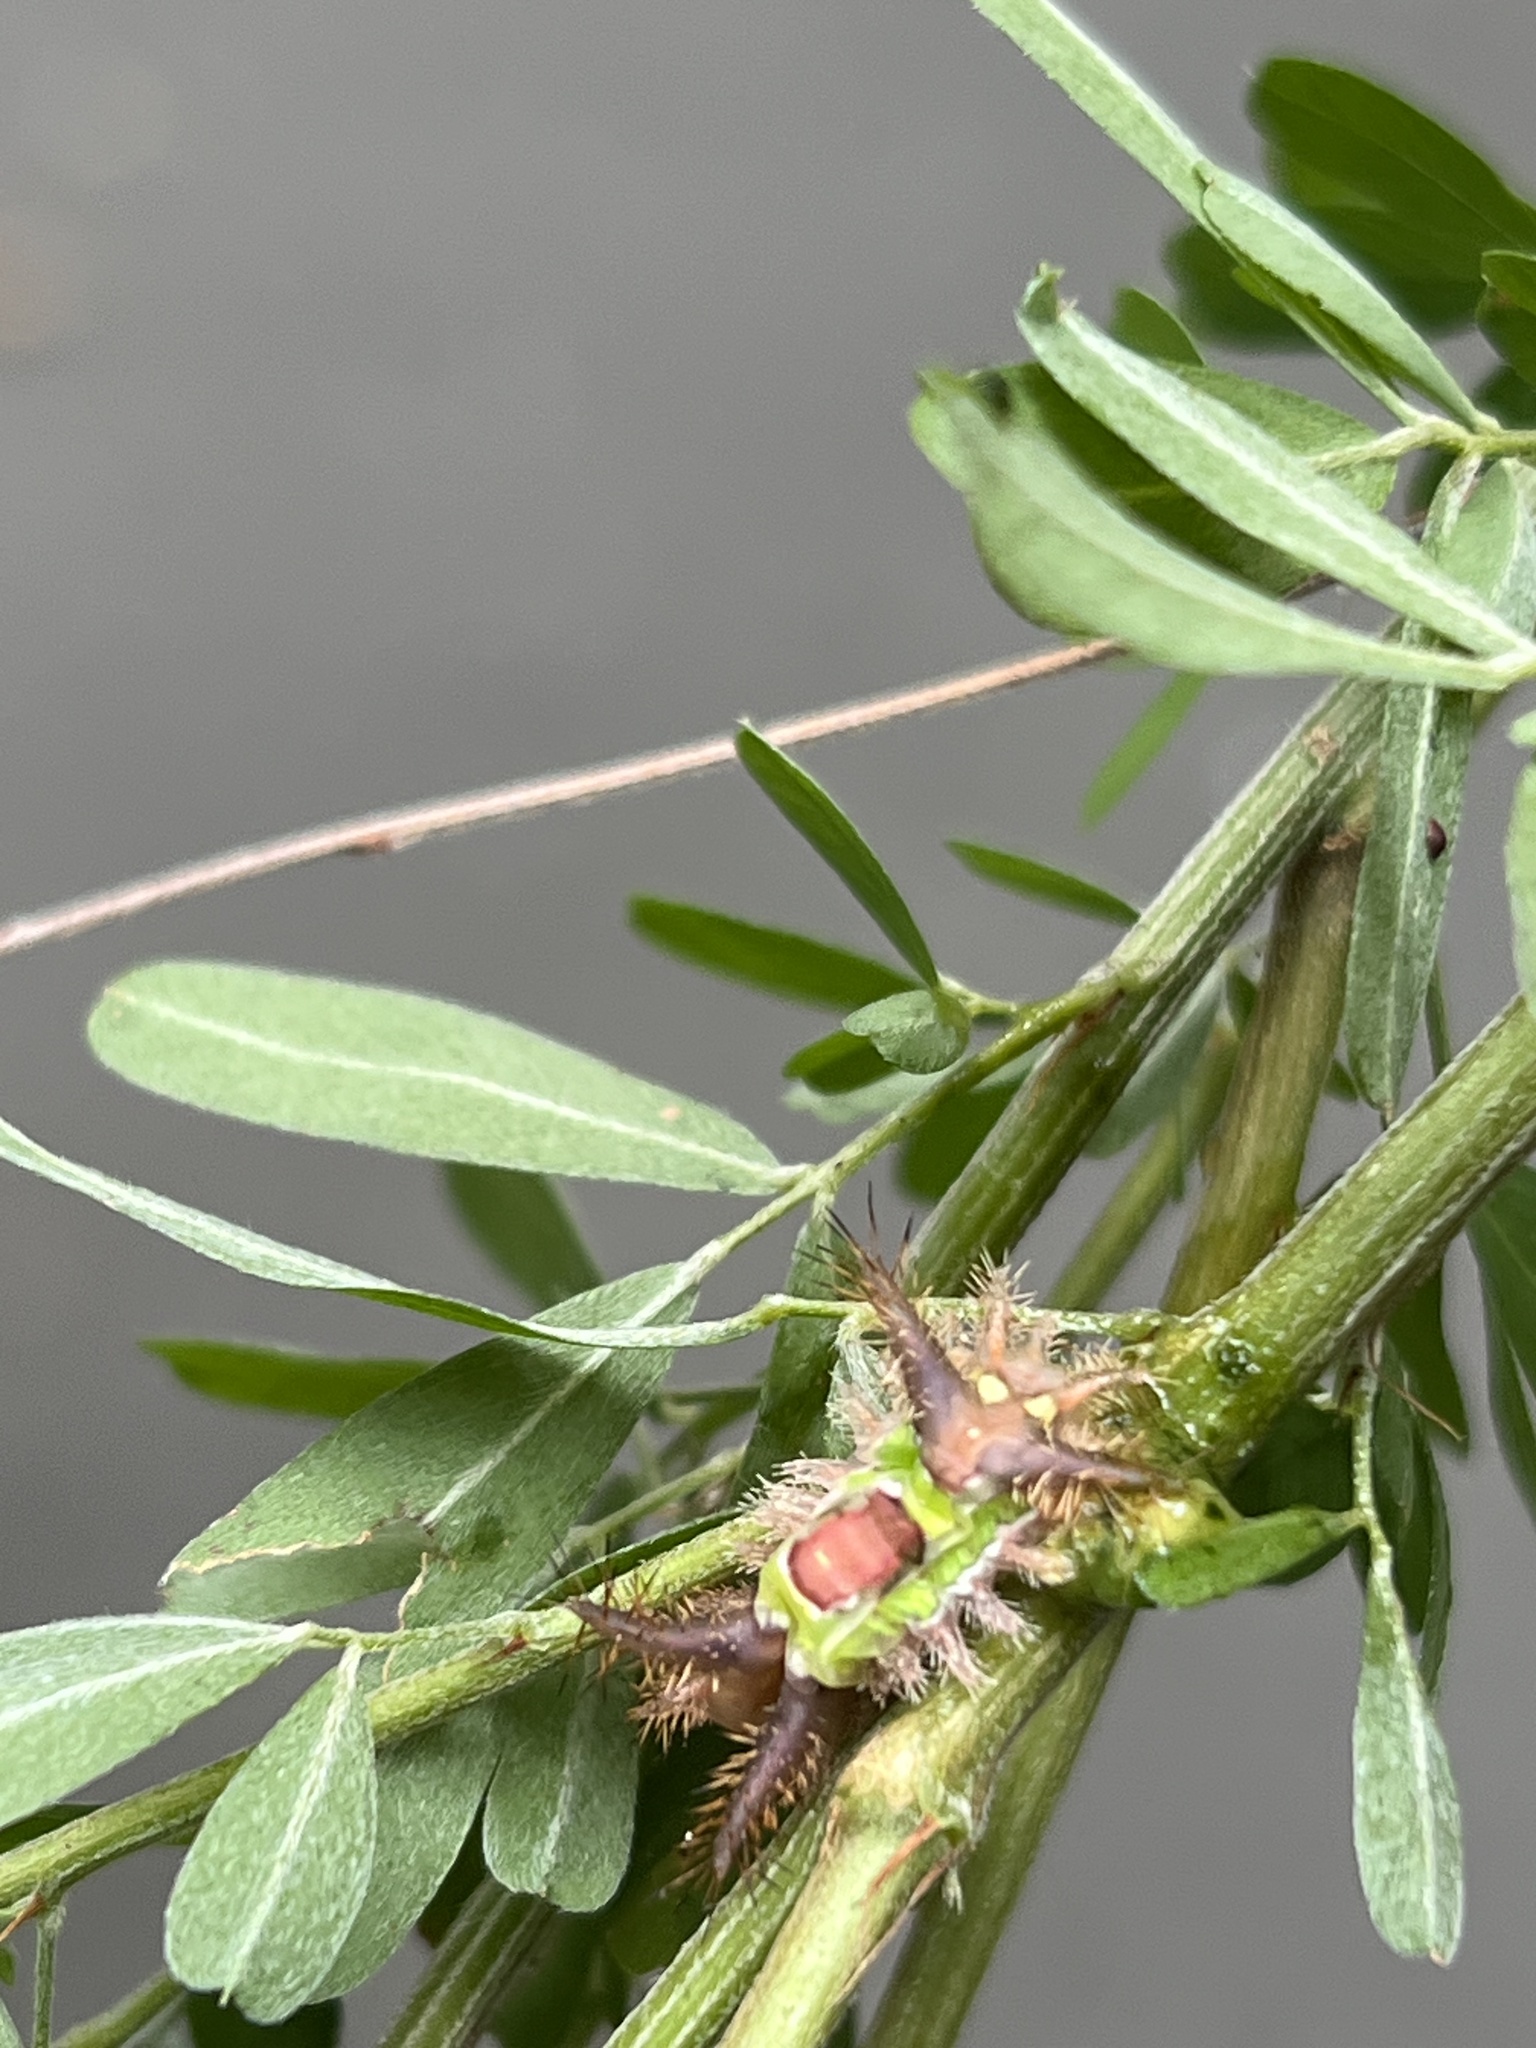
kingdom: Animalia
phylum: Arthropoda
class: Insecta
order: Lepidoptera
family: Limacodidae
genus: Acharia
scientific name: Acharia stimulea
